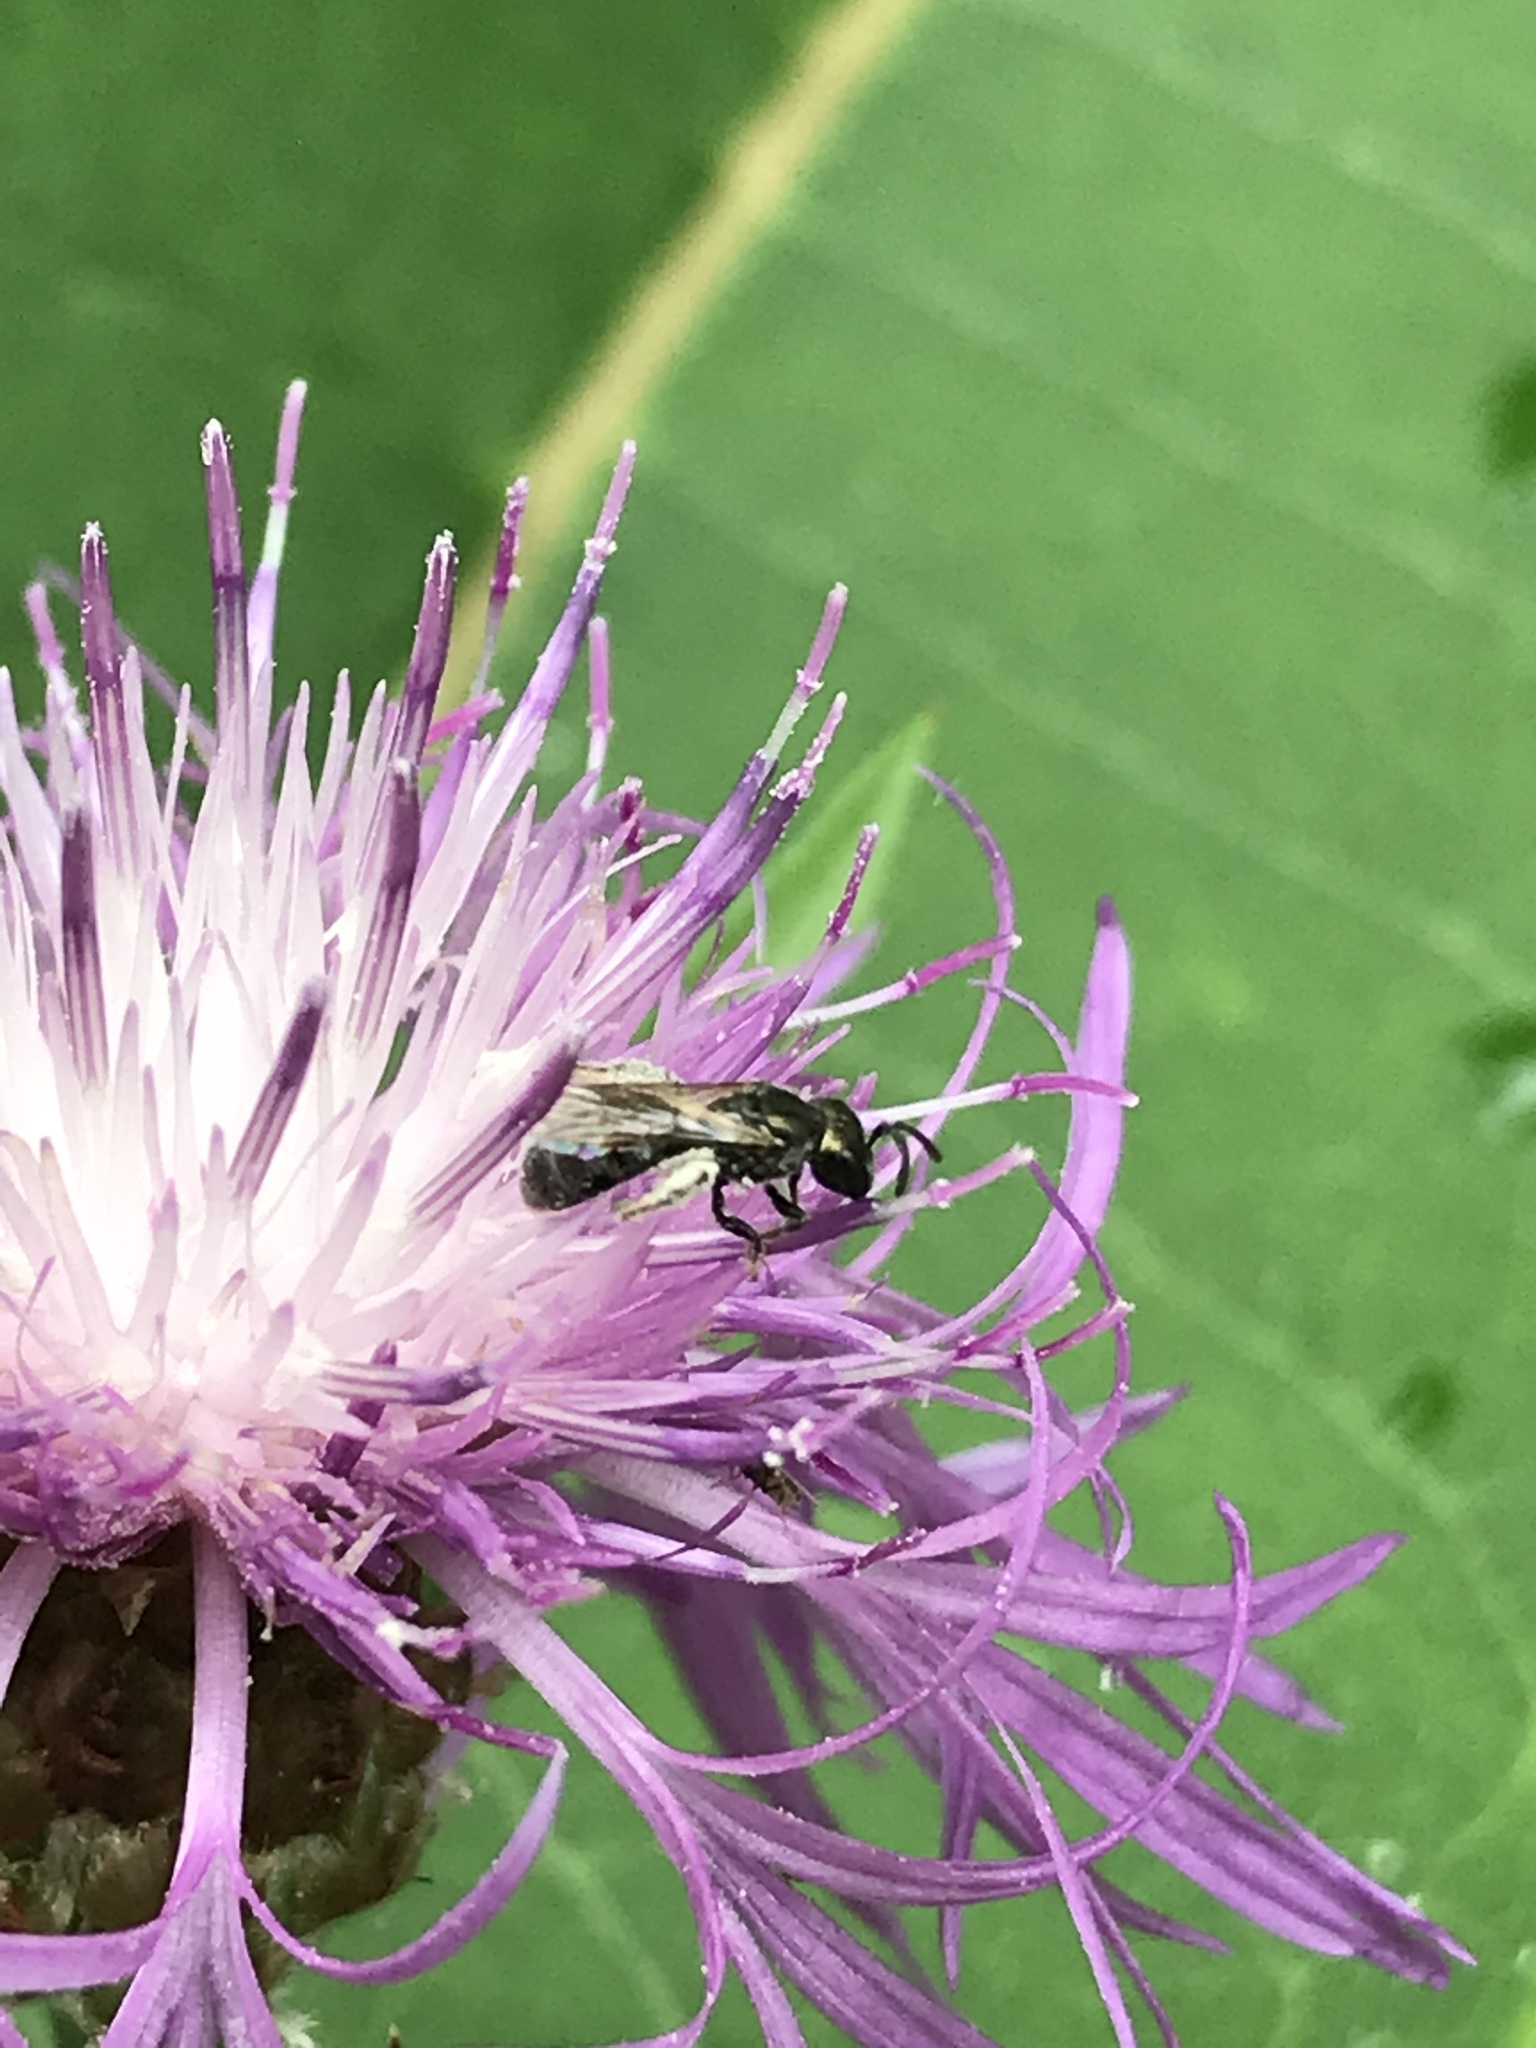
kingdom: Animalia
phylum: Arthropoda
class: Insecta
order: Hymenoptera
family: Halictidae
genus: Dialictus
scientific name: Dialictus
